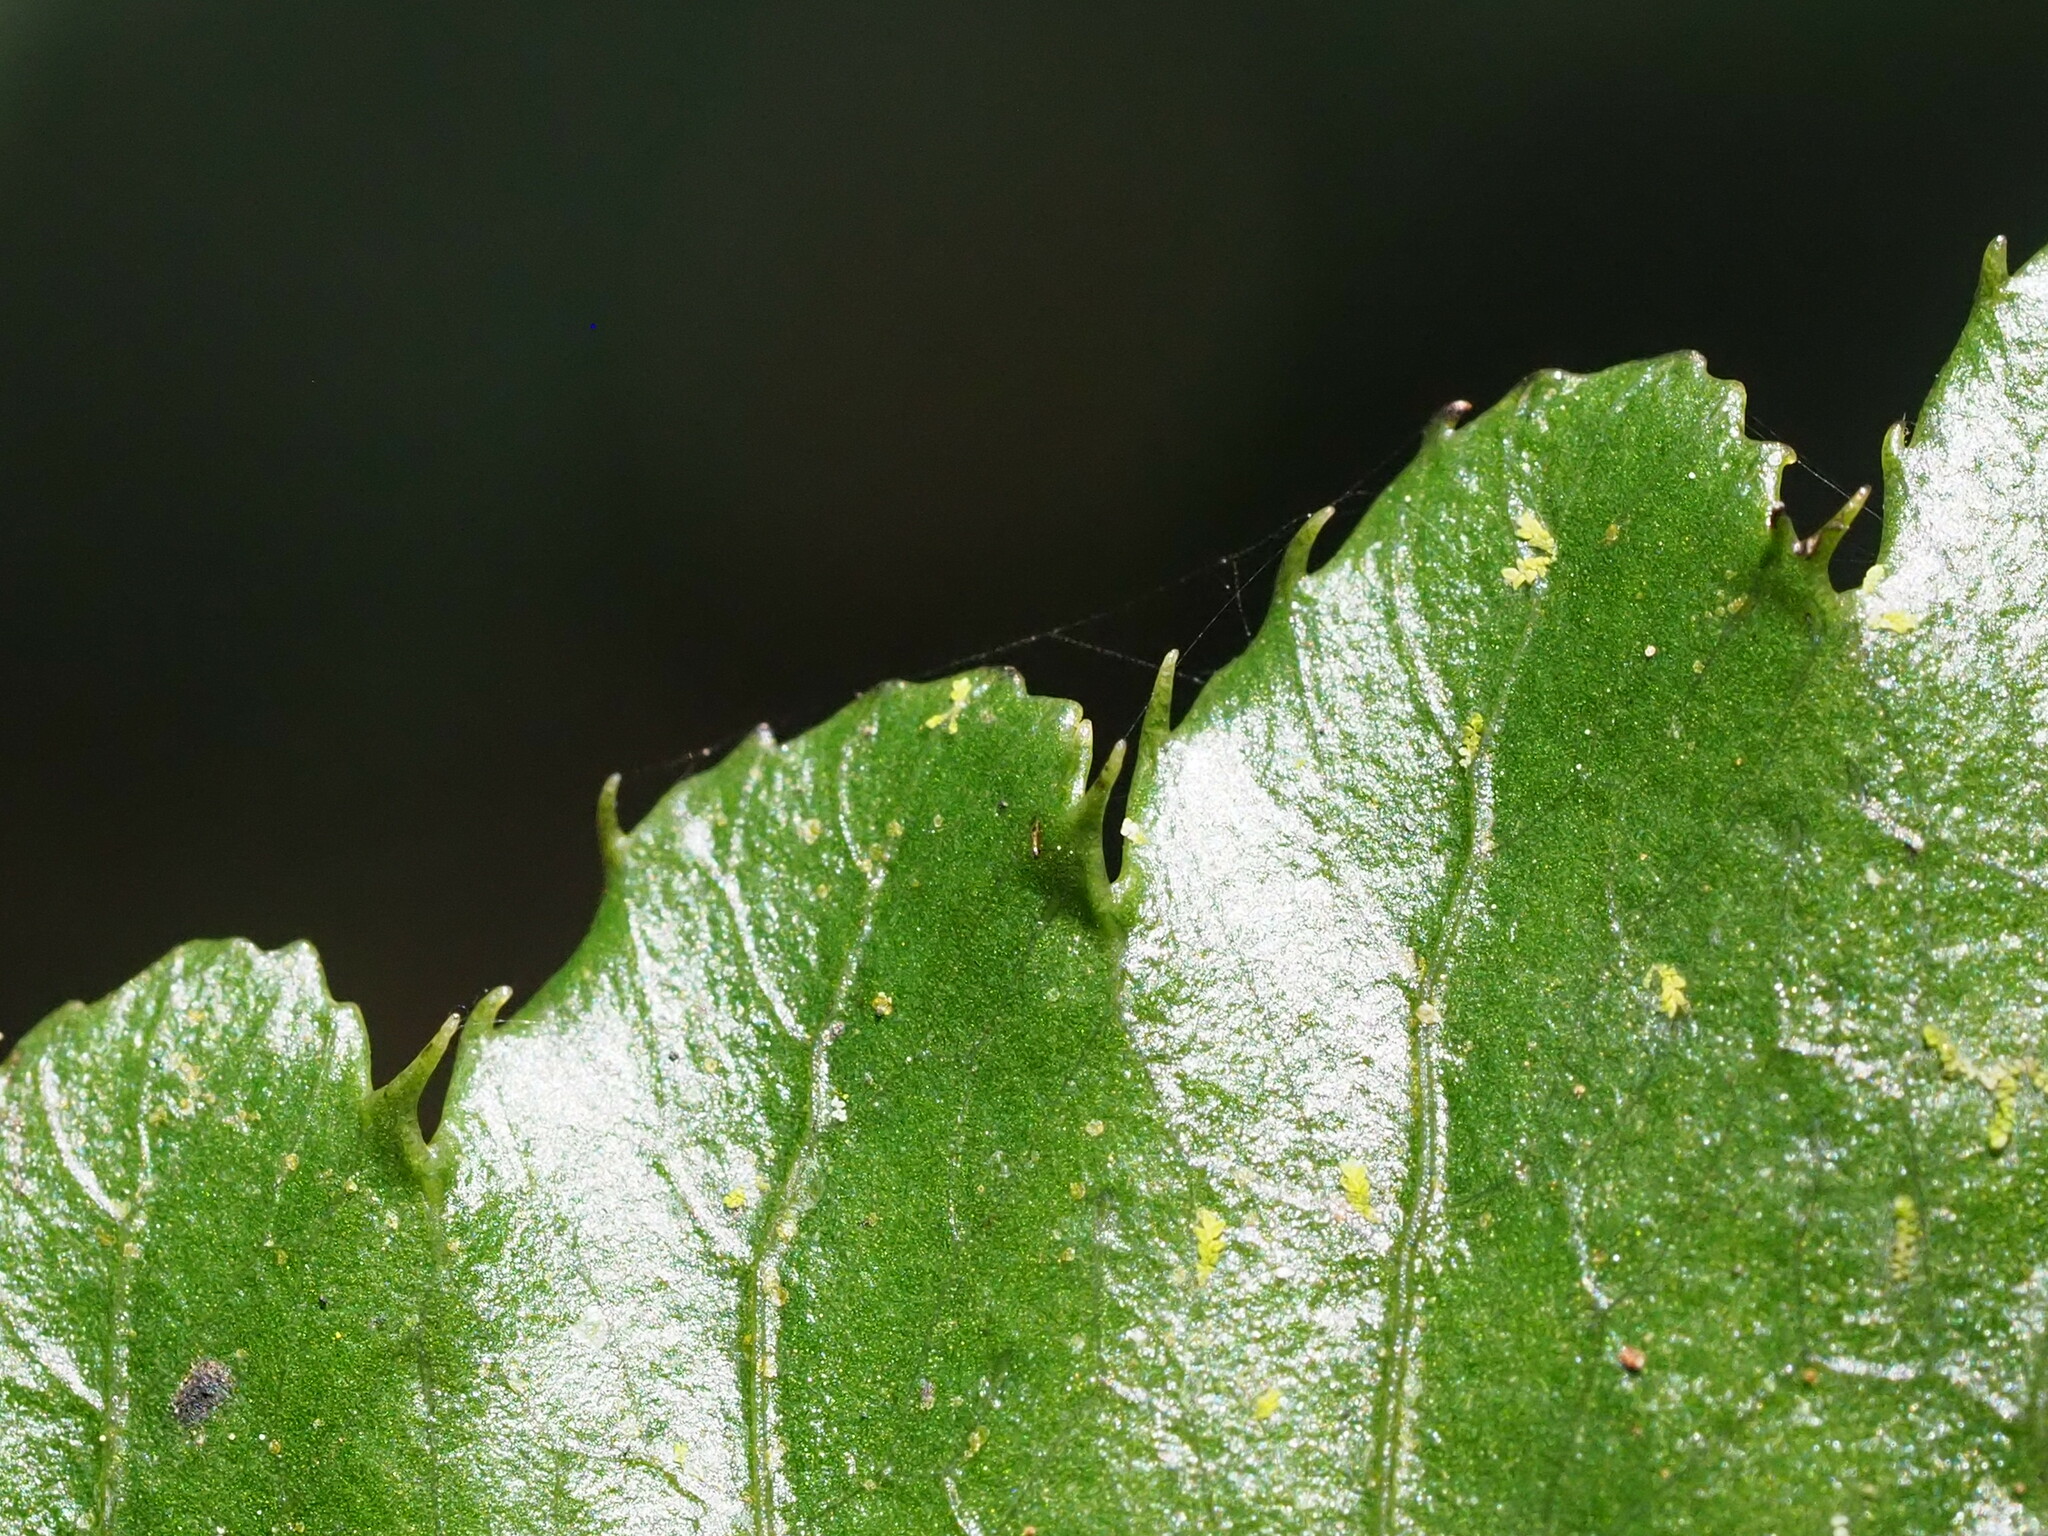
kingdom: Plantae
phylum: Tracheophyta
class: Polypodiopsida
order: Polypodiales
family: Dryopteridaceae
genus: Bolbitis
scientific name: Bolbitis subcordata
